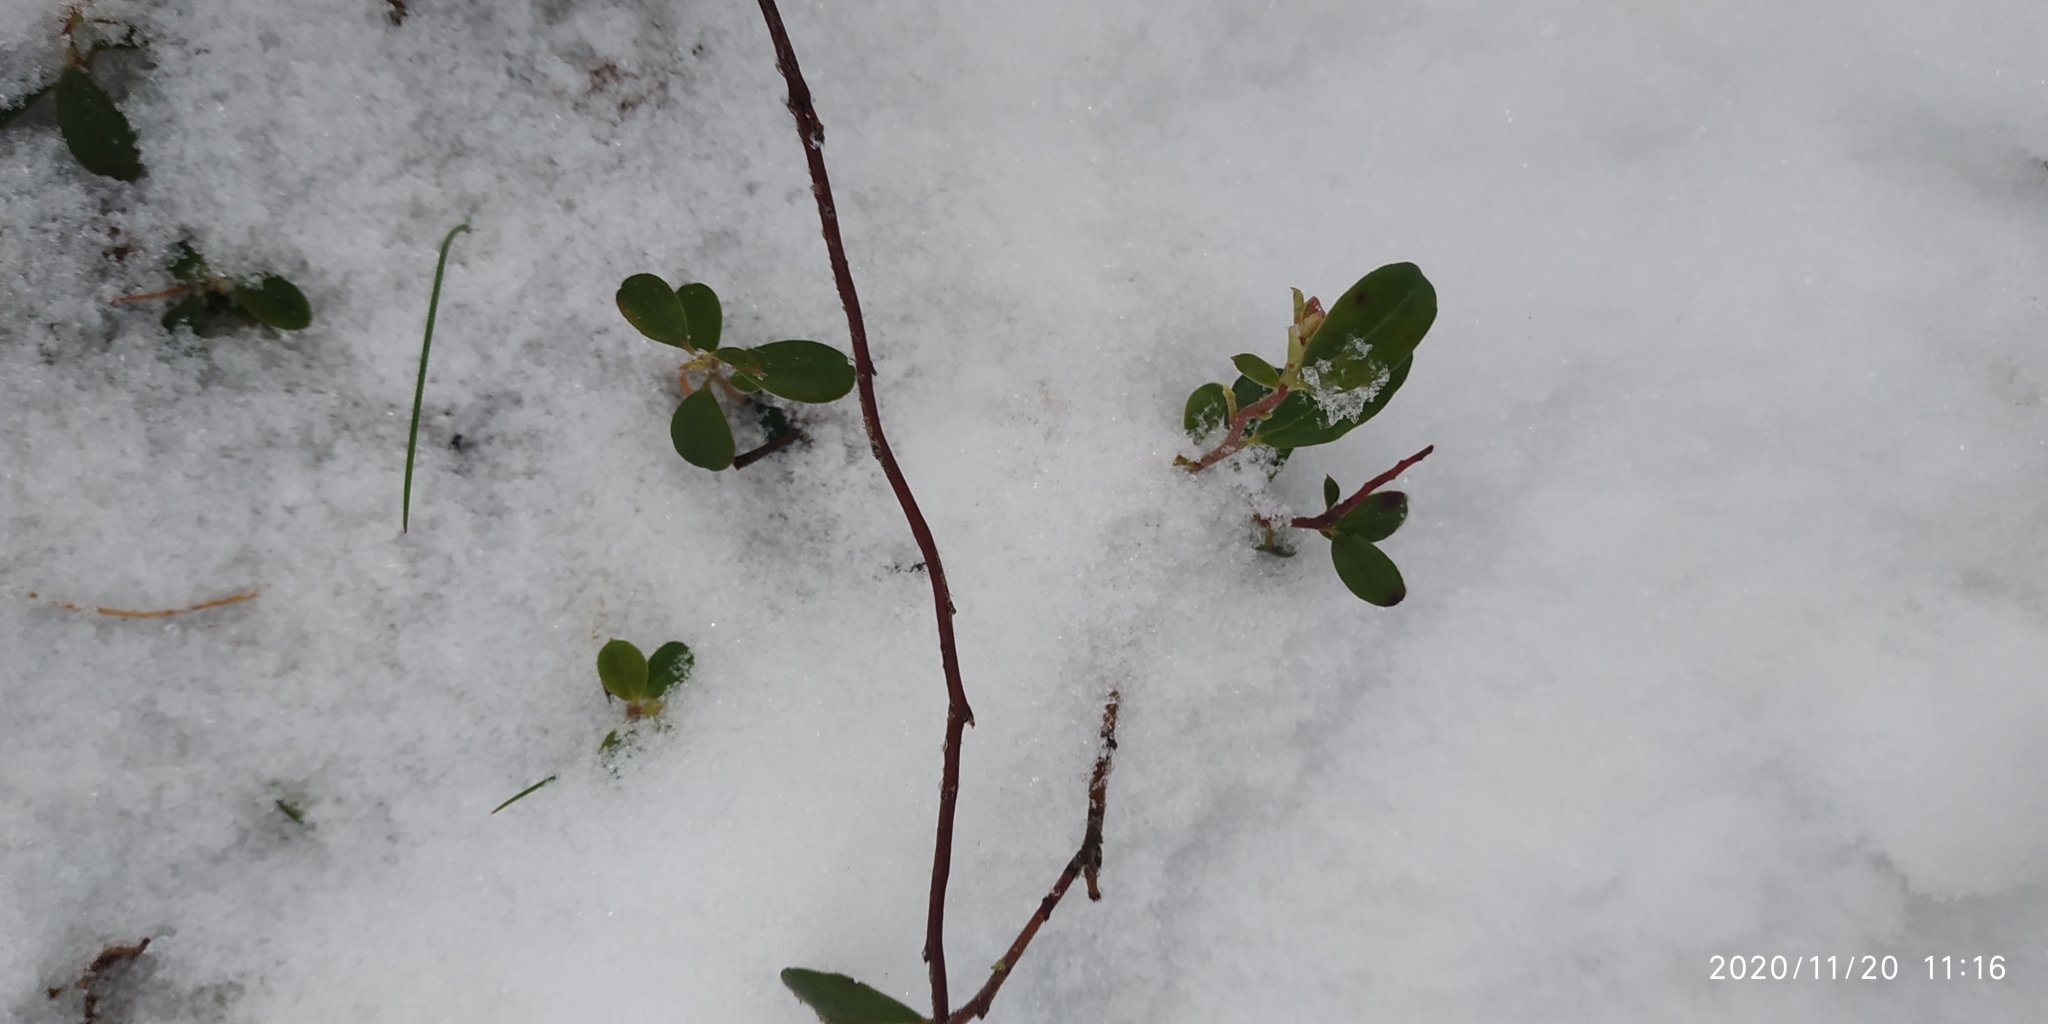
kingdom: Plantae
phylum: Tracheophyta
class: Magnoliopsida
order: Ericales
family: Ericaceae
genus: Vaccinium
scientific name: Vaccinium vitis-idaea
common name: Cowberry
